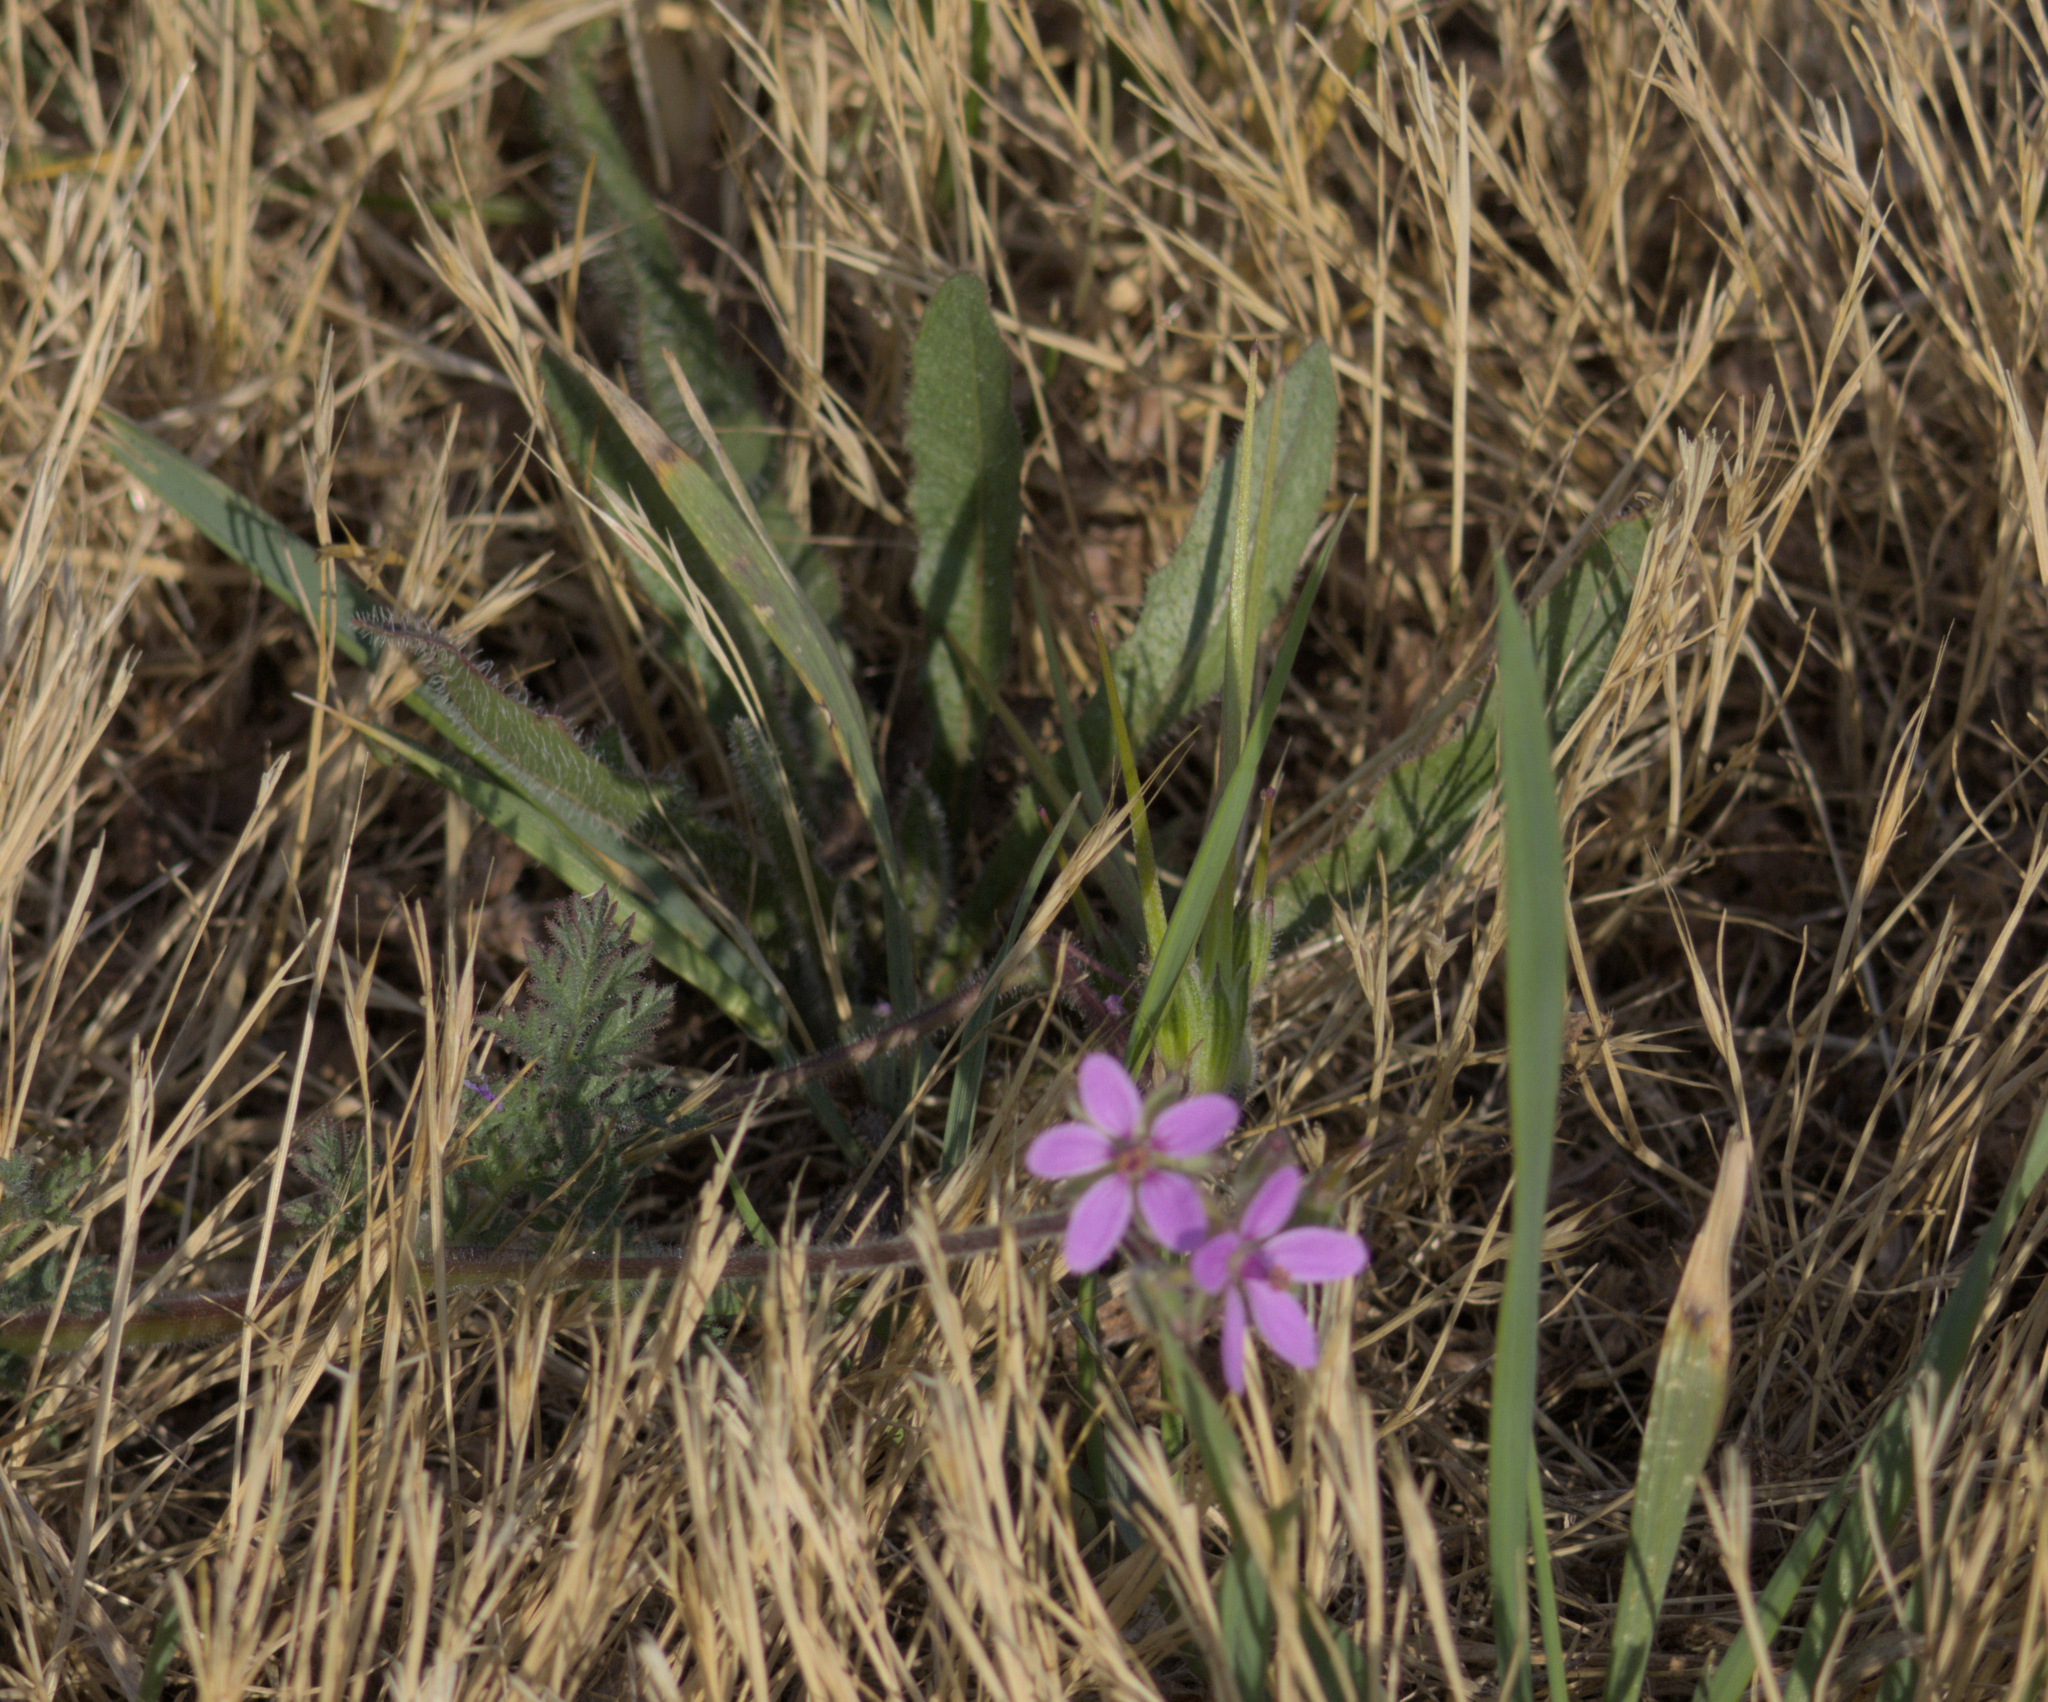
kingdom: Plantae
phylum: Tracheophyta
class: Magnoliopsida
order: Geraniales
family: Geraniaceae
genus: Erodium
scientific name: Erodium cicutarium
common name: Common stork's-bill
